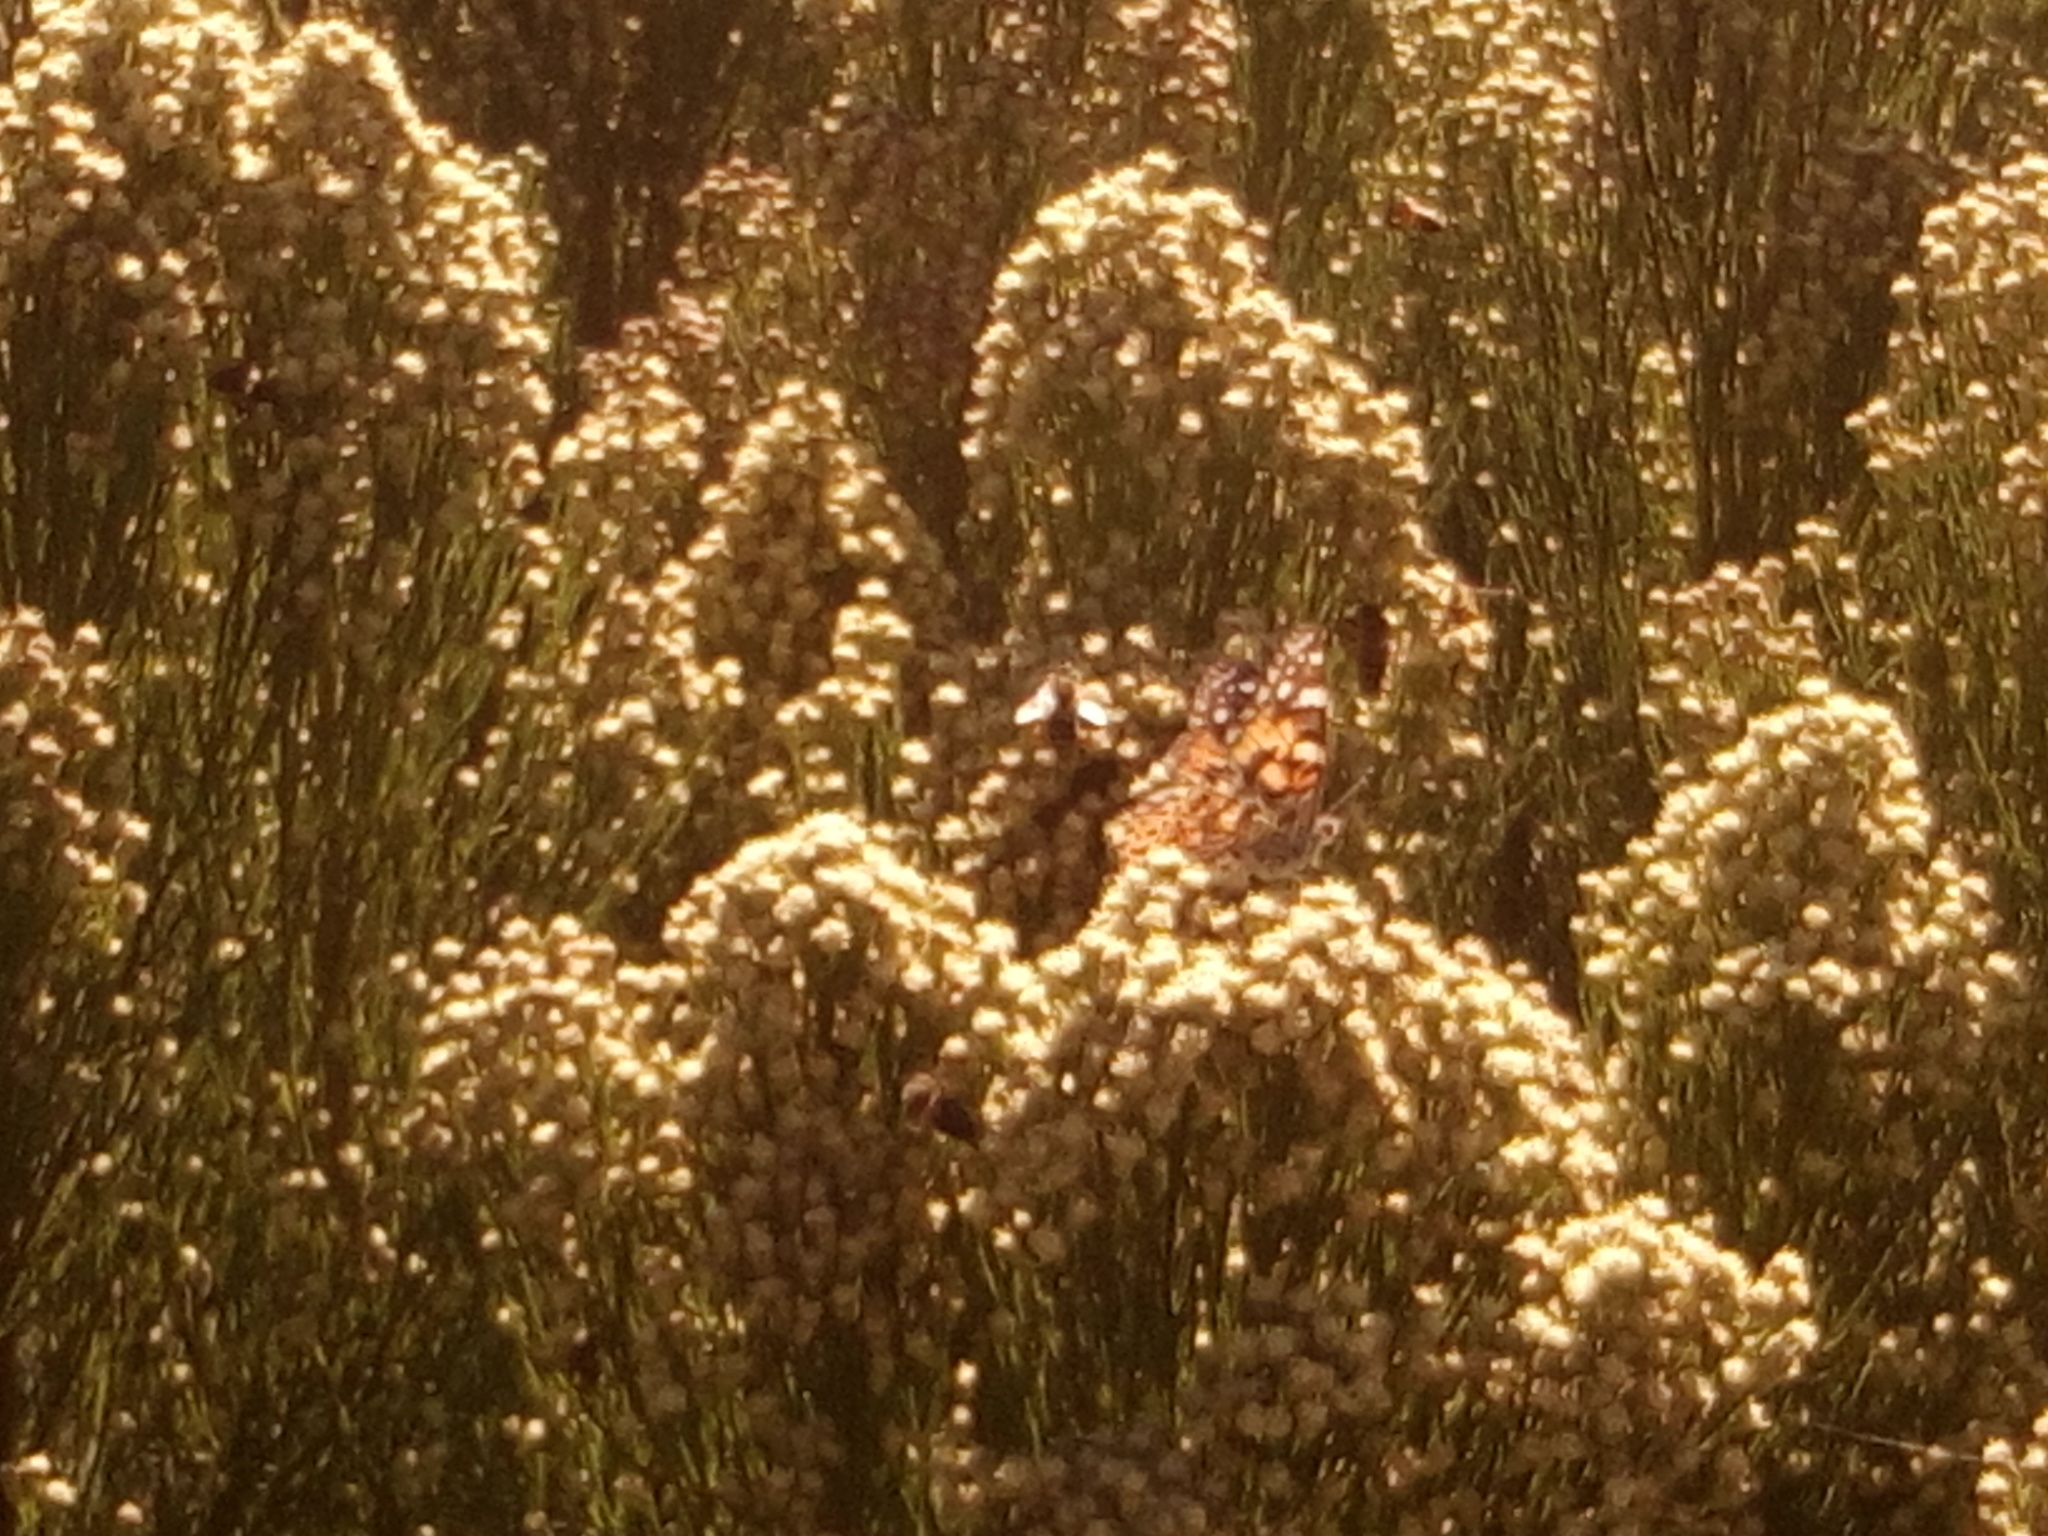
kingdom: Animalia
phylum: Arthropoda
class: Insecta
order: Lepidoptera
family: Nymphalidae
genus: Vanessa
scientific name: Vanessa cardui
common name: Painted lady
